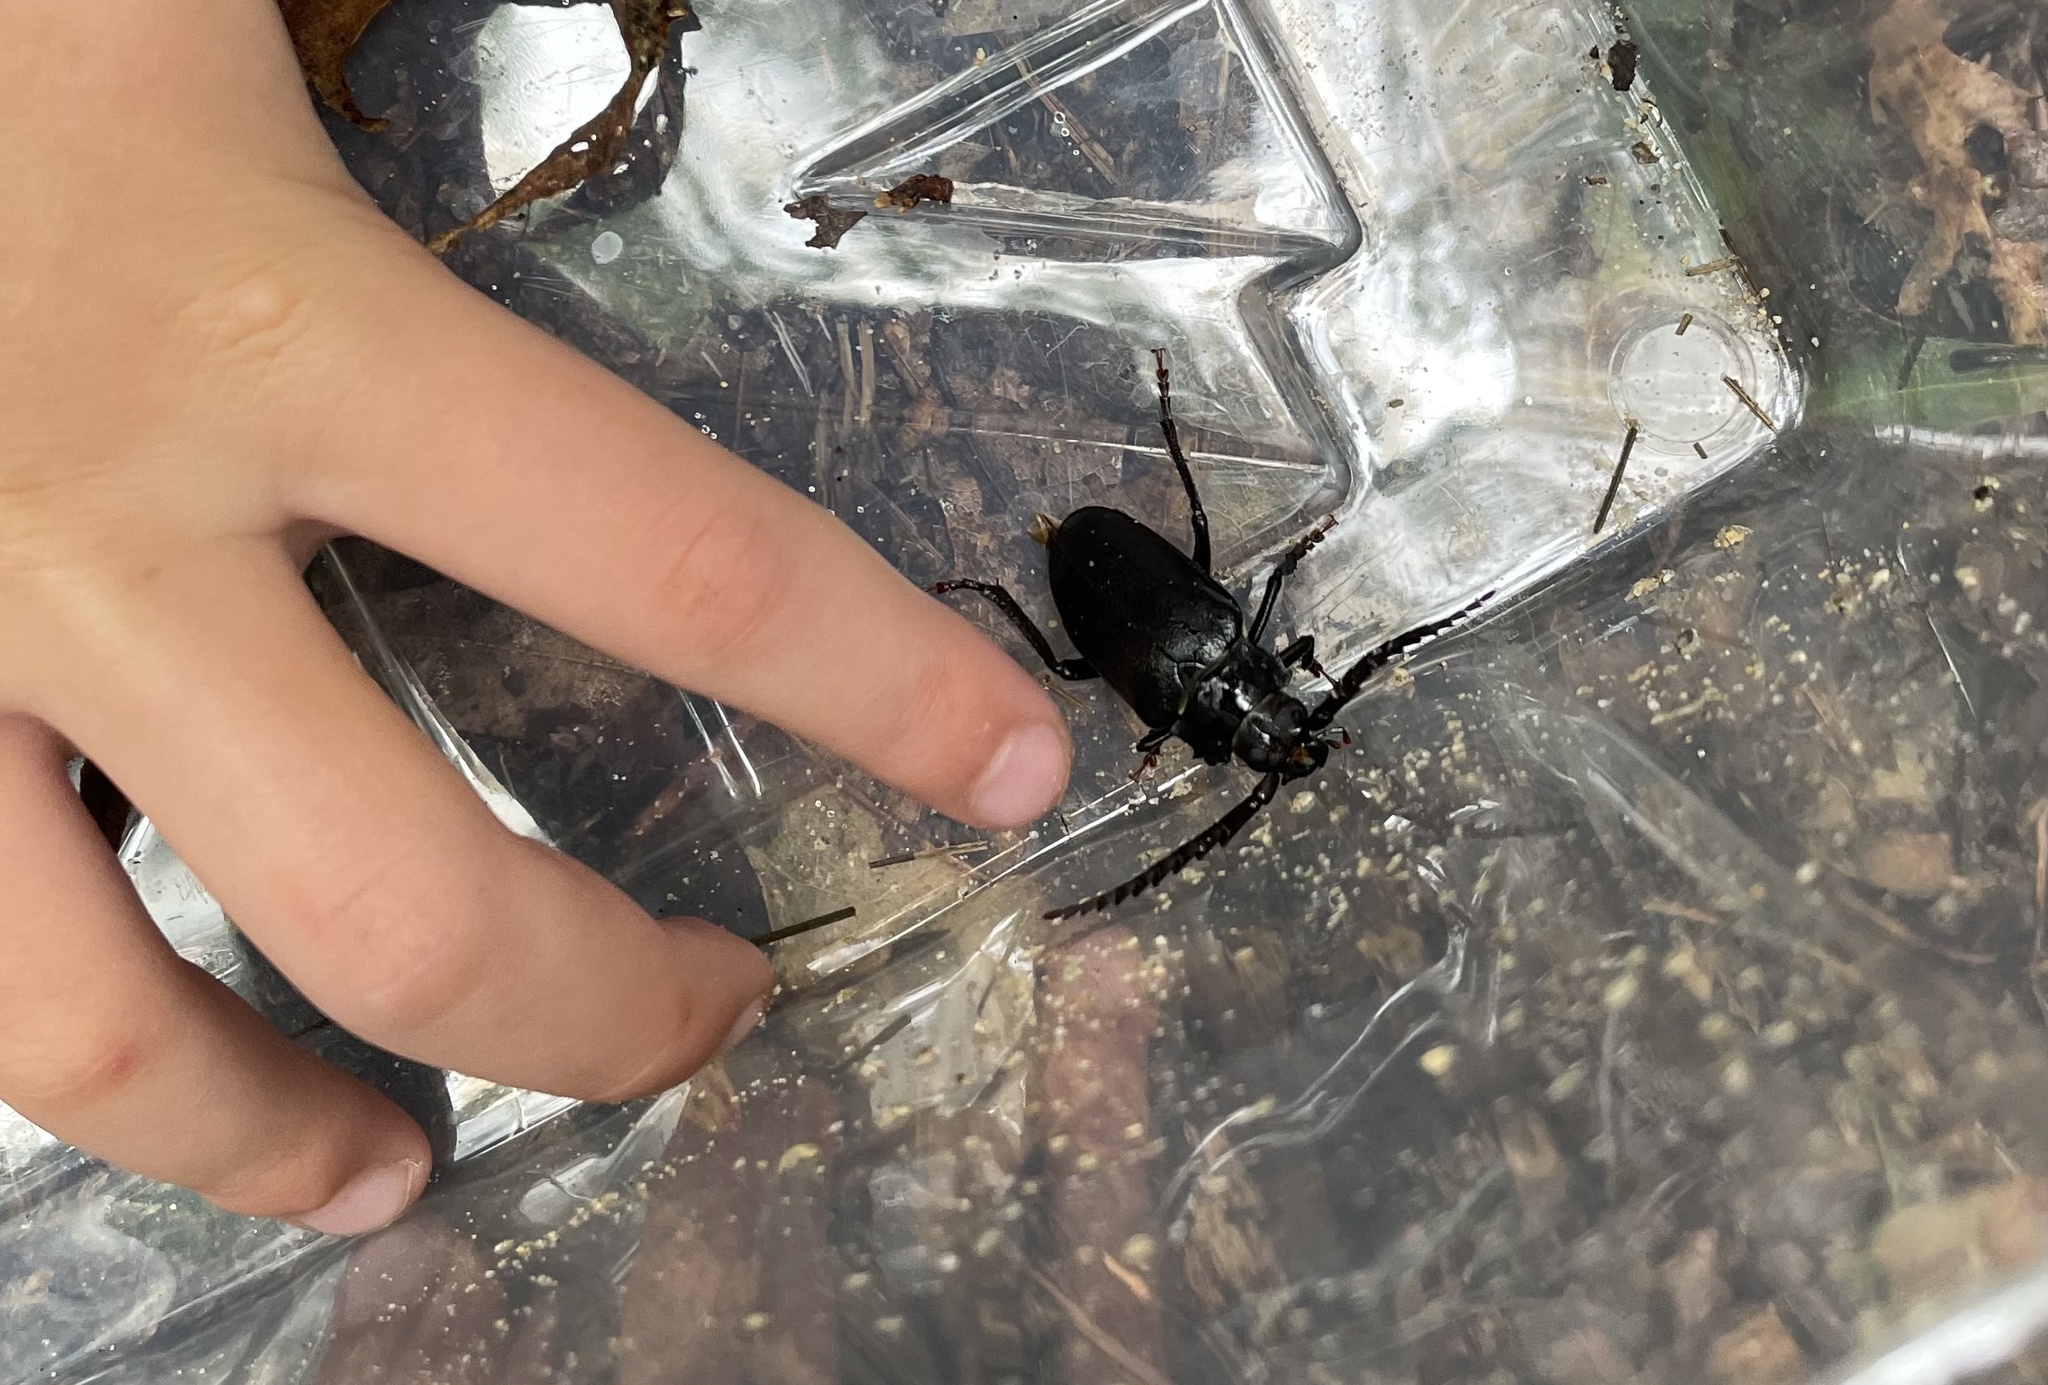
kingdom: Animalia
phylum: Arthropoda
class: Insecta
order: Coleoptera
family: Cerambycidae
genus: Prionus
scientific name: Prionus laticollis
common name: Broad necked prionus
